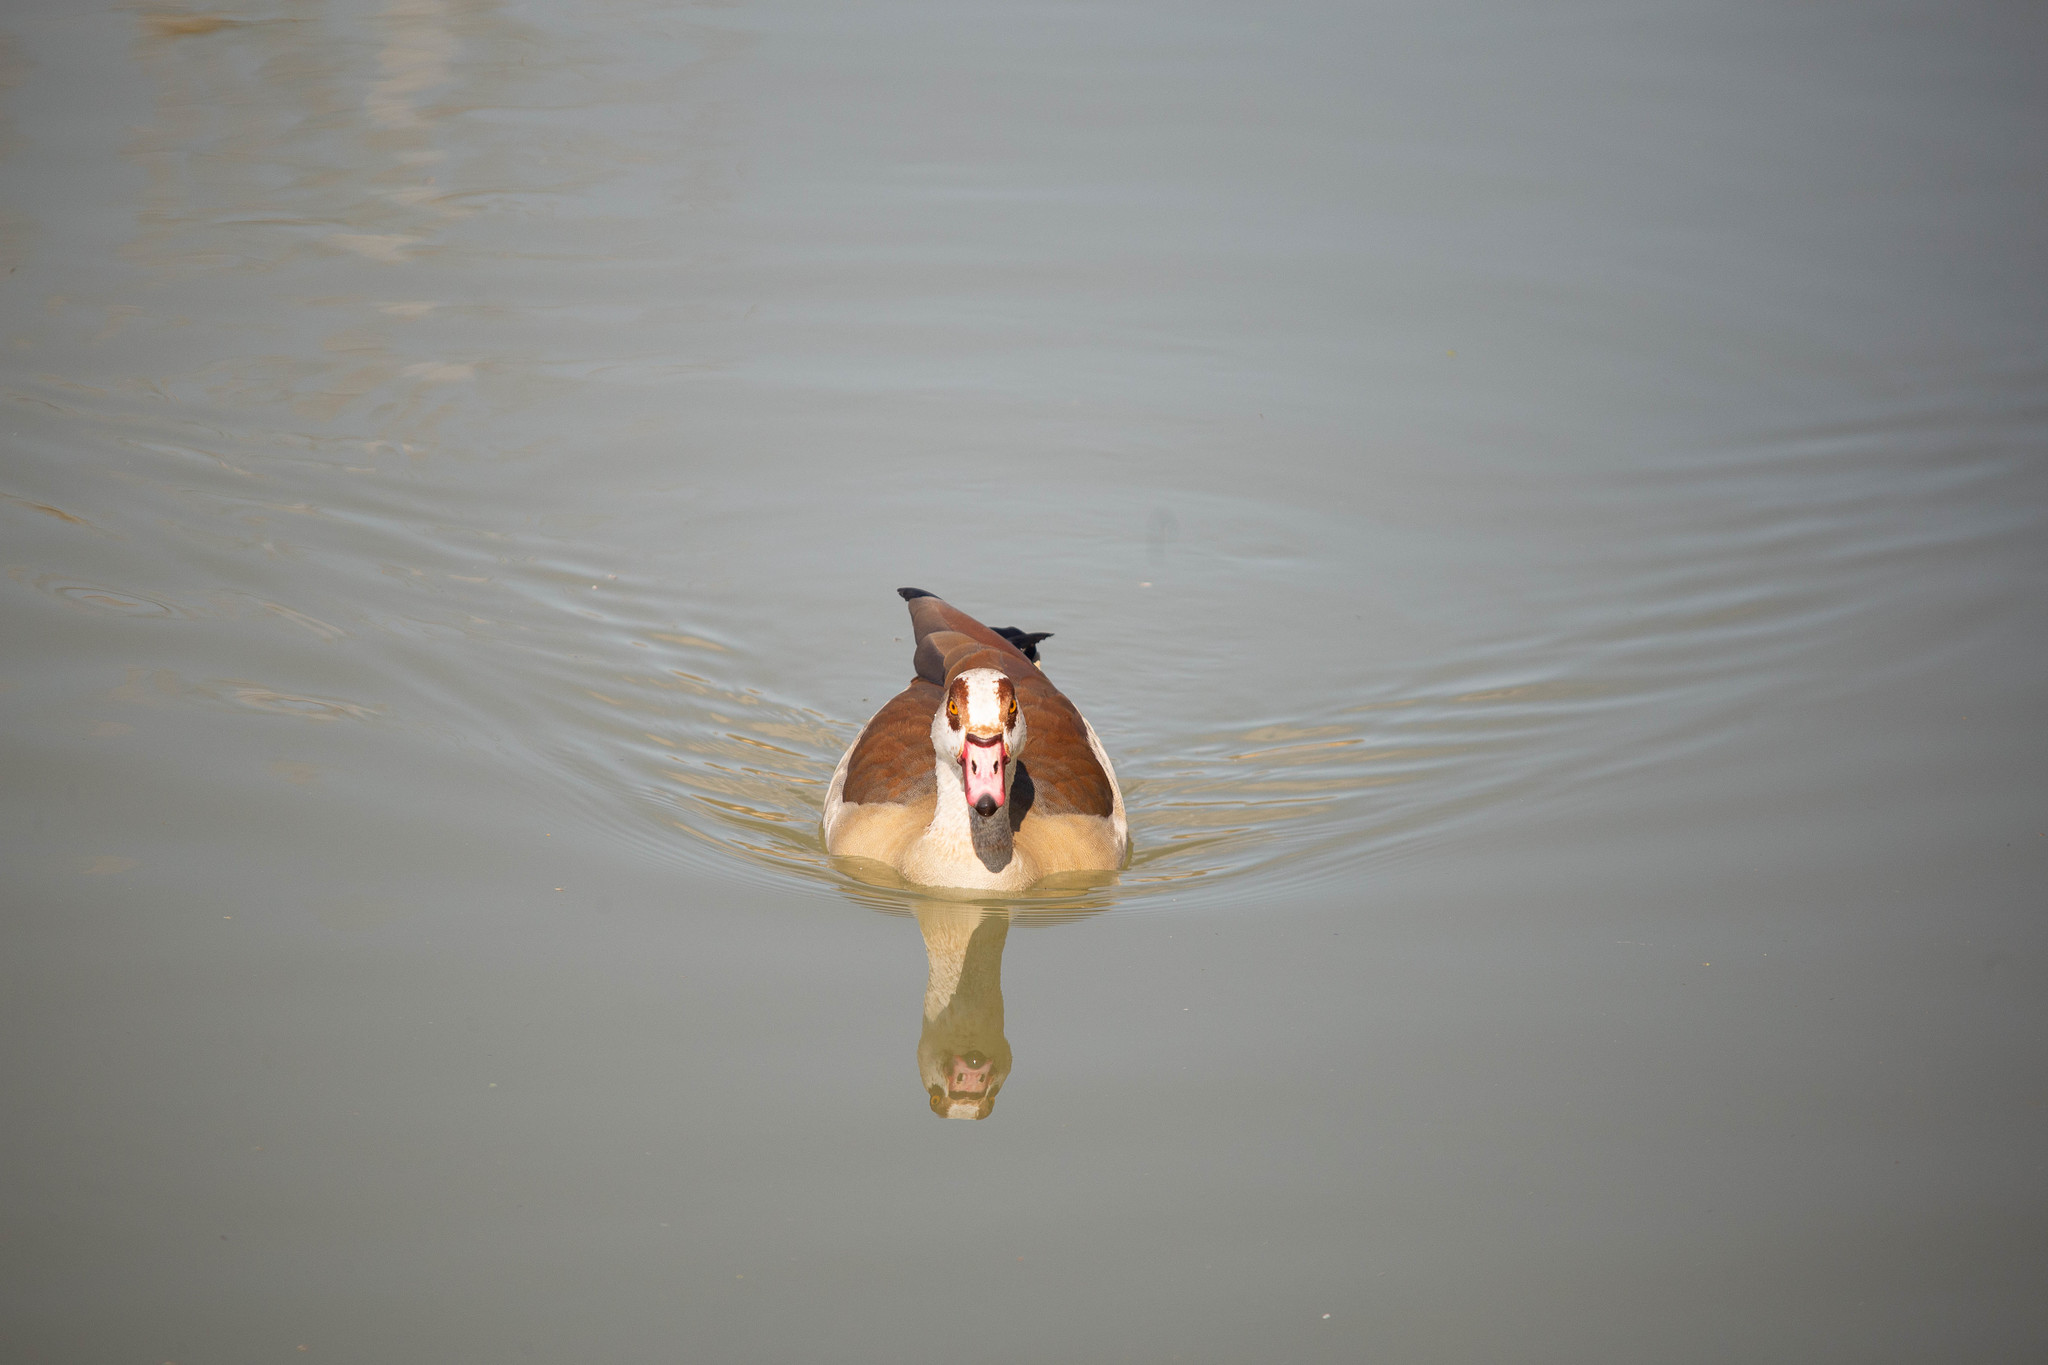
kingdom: Animalia
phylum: Chordata
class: Aves
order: Anseriformes
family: Anatidae
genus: Alopochen
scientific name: Alopochen aegyptiaca
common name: Egyptian goose
